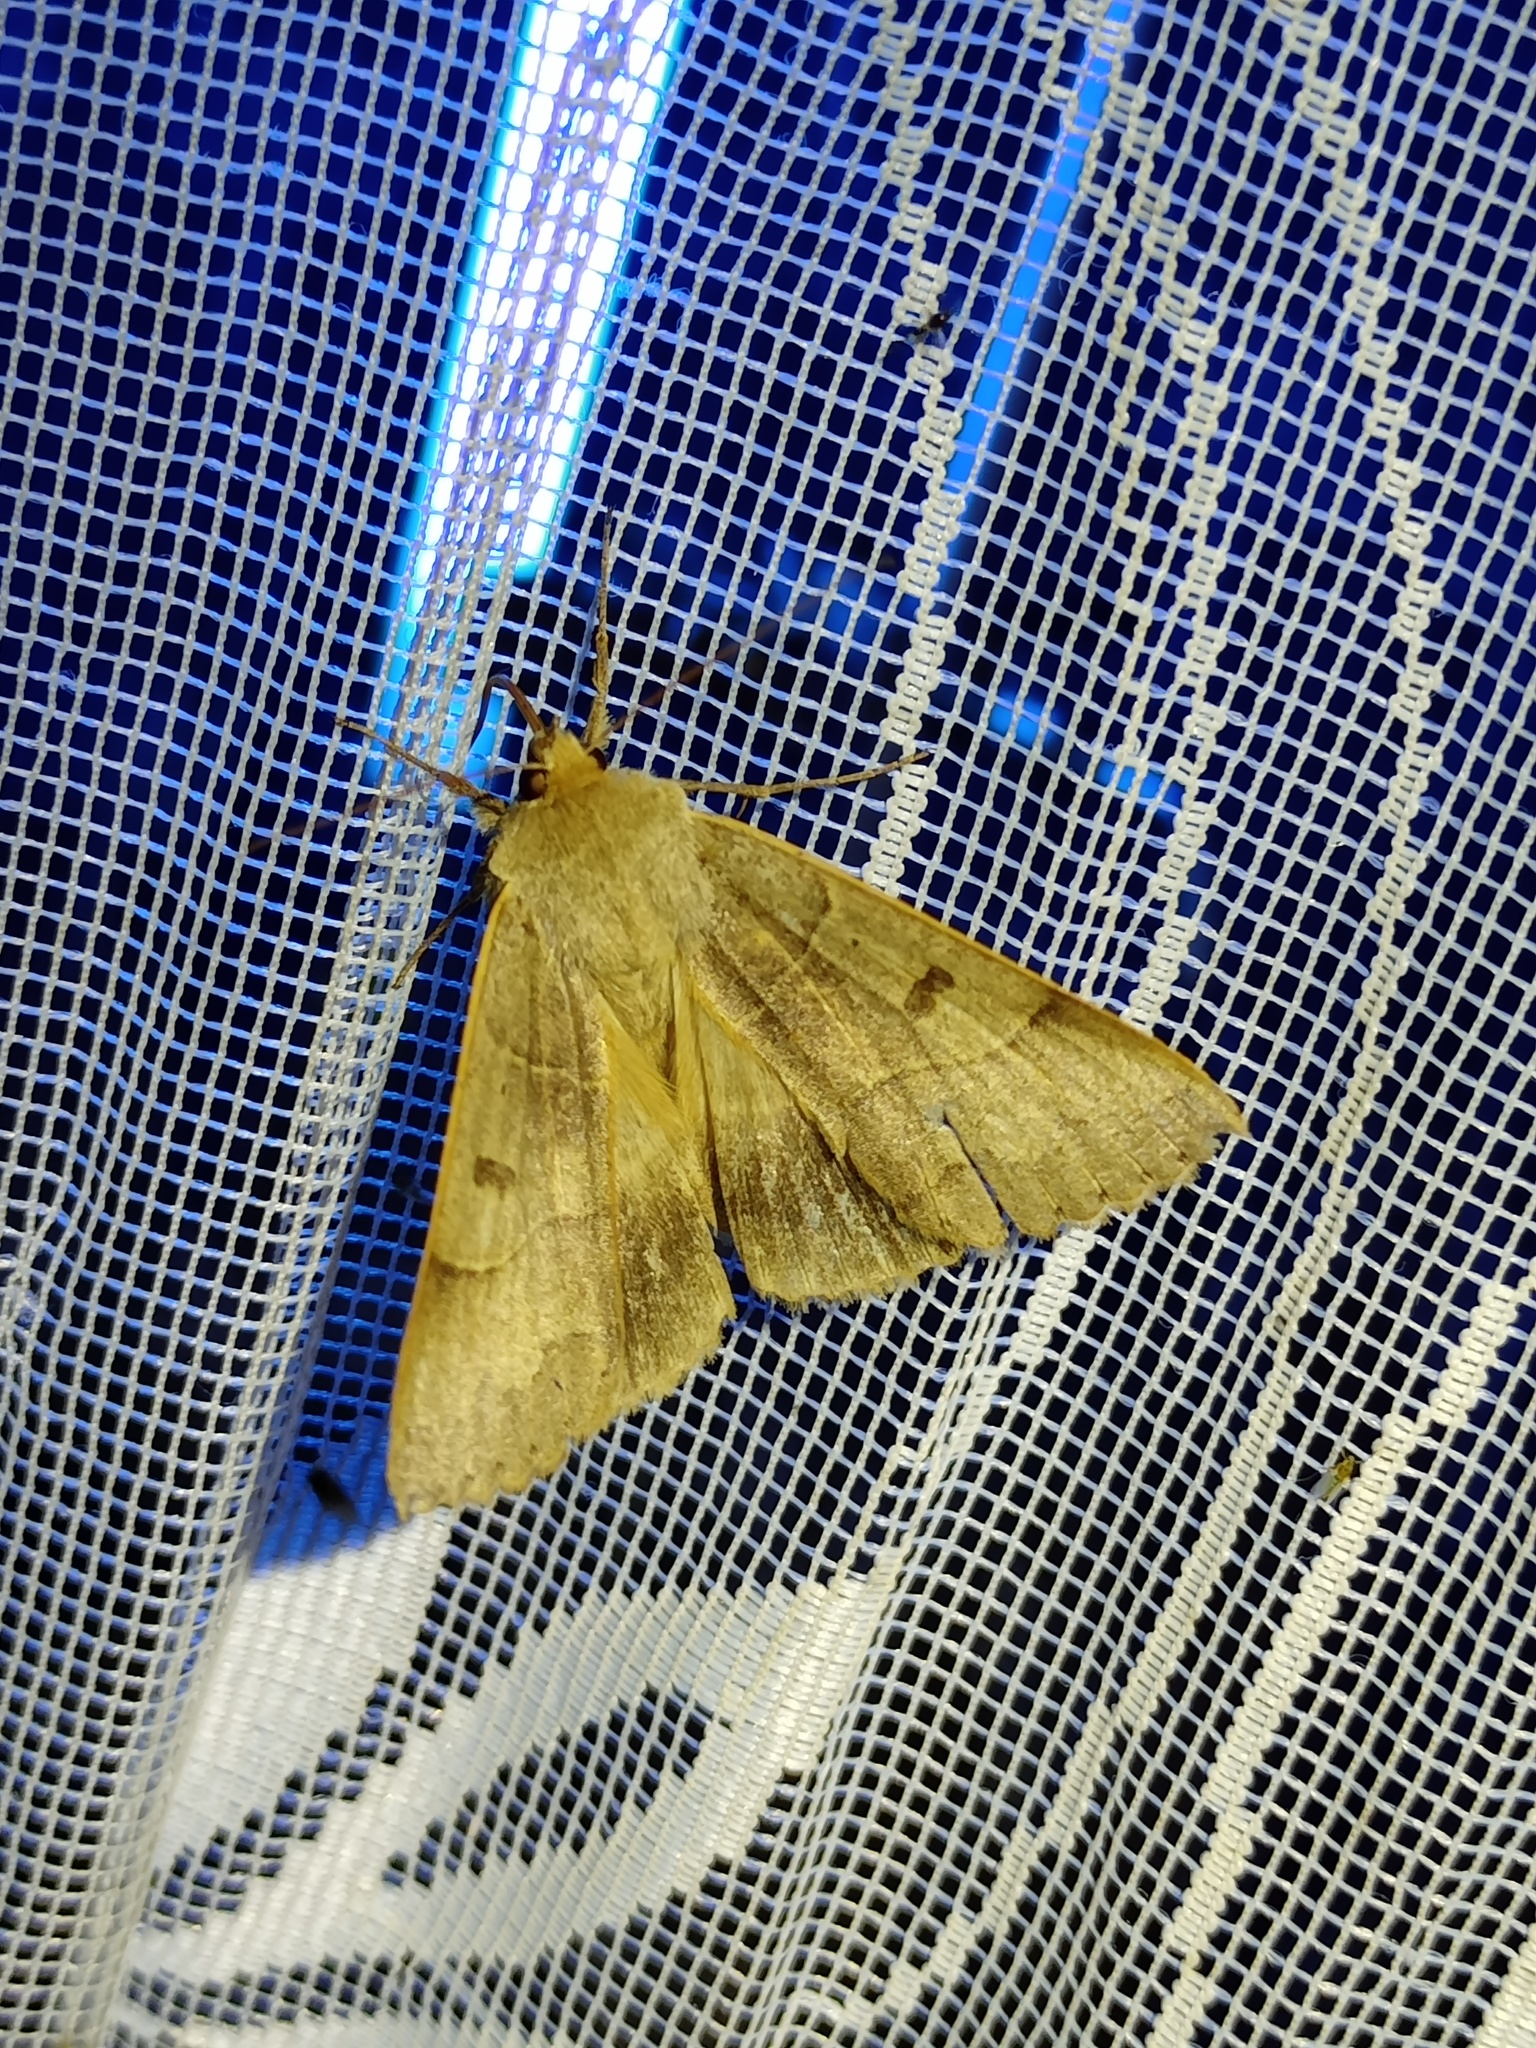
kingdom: Animalia
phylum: Arthropoda
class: Insecta
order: Lepidoptera
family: Erebidae
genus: Minucia
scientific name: Minucia lunaris
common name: Lunar double-stripe
